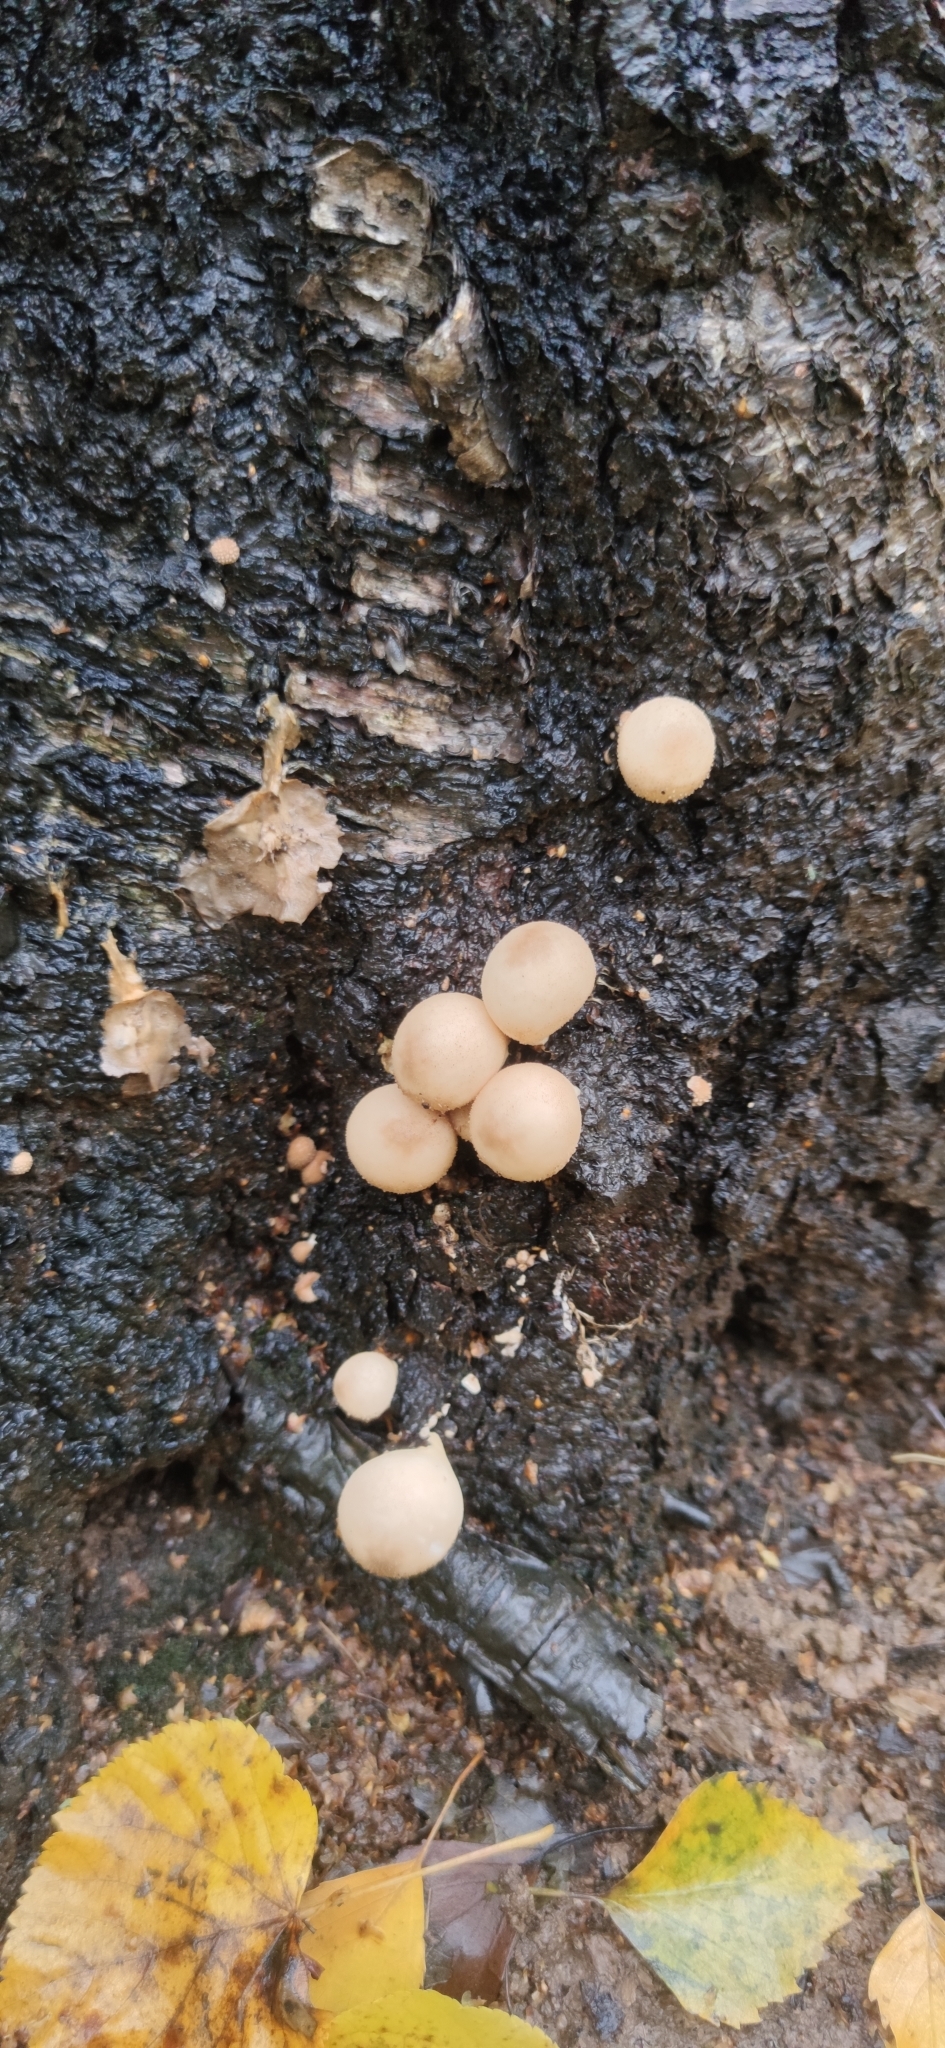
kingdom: Fungi
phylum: Basidiomycota
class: Agaricomycetes
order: Agaricales
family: Lycoperdaceae
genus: Apioperdon
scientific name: Apioperdon pyriforme
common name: Pear-shaped puffball
